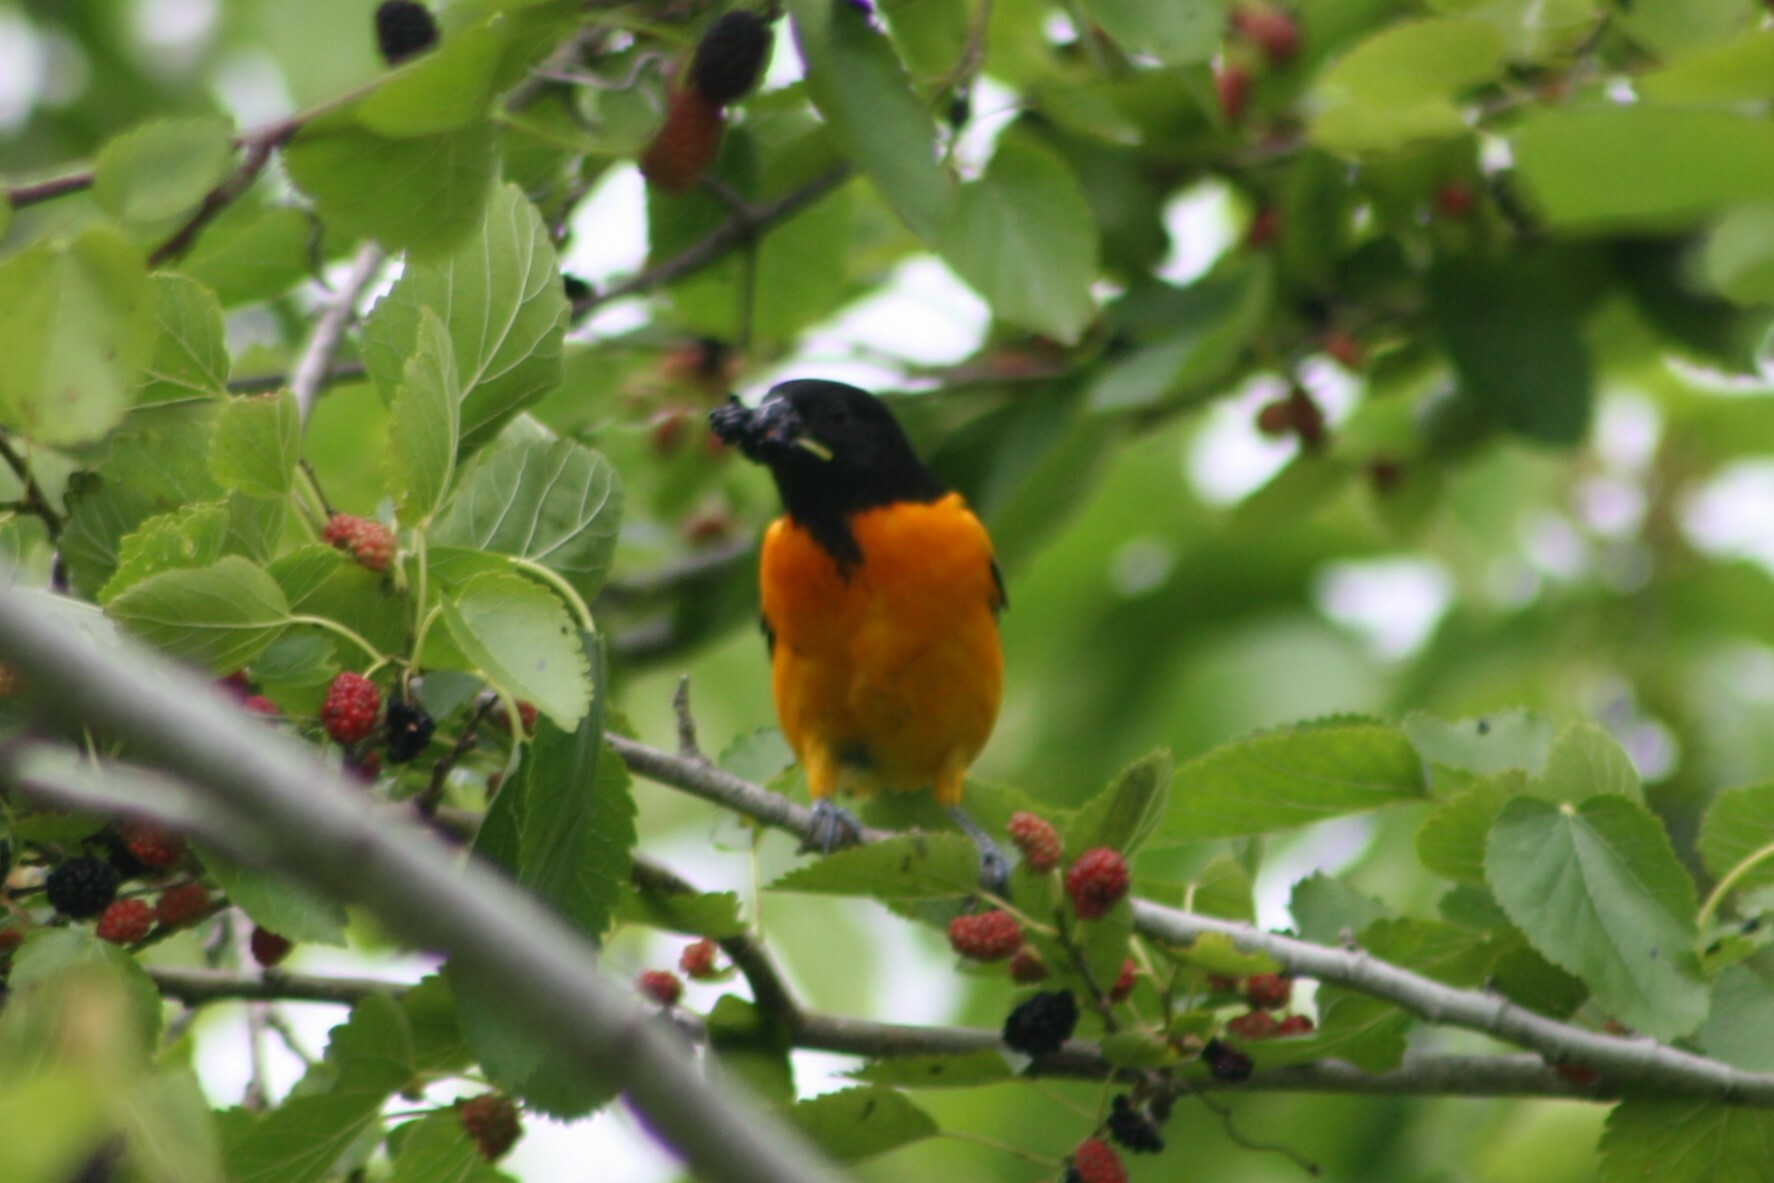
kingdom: Animalia
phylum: Chordata
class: Aves
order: Passeriformes
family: Icteridae
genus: Icterus
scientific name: Icterus galbula
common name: Baltimore oriole
